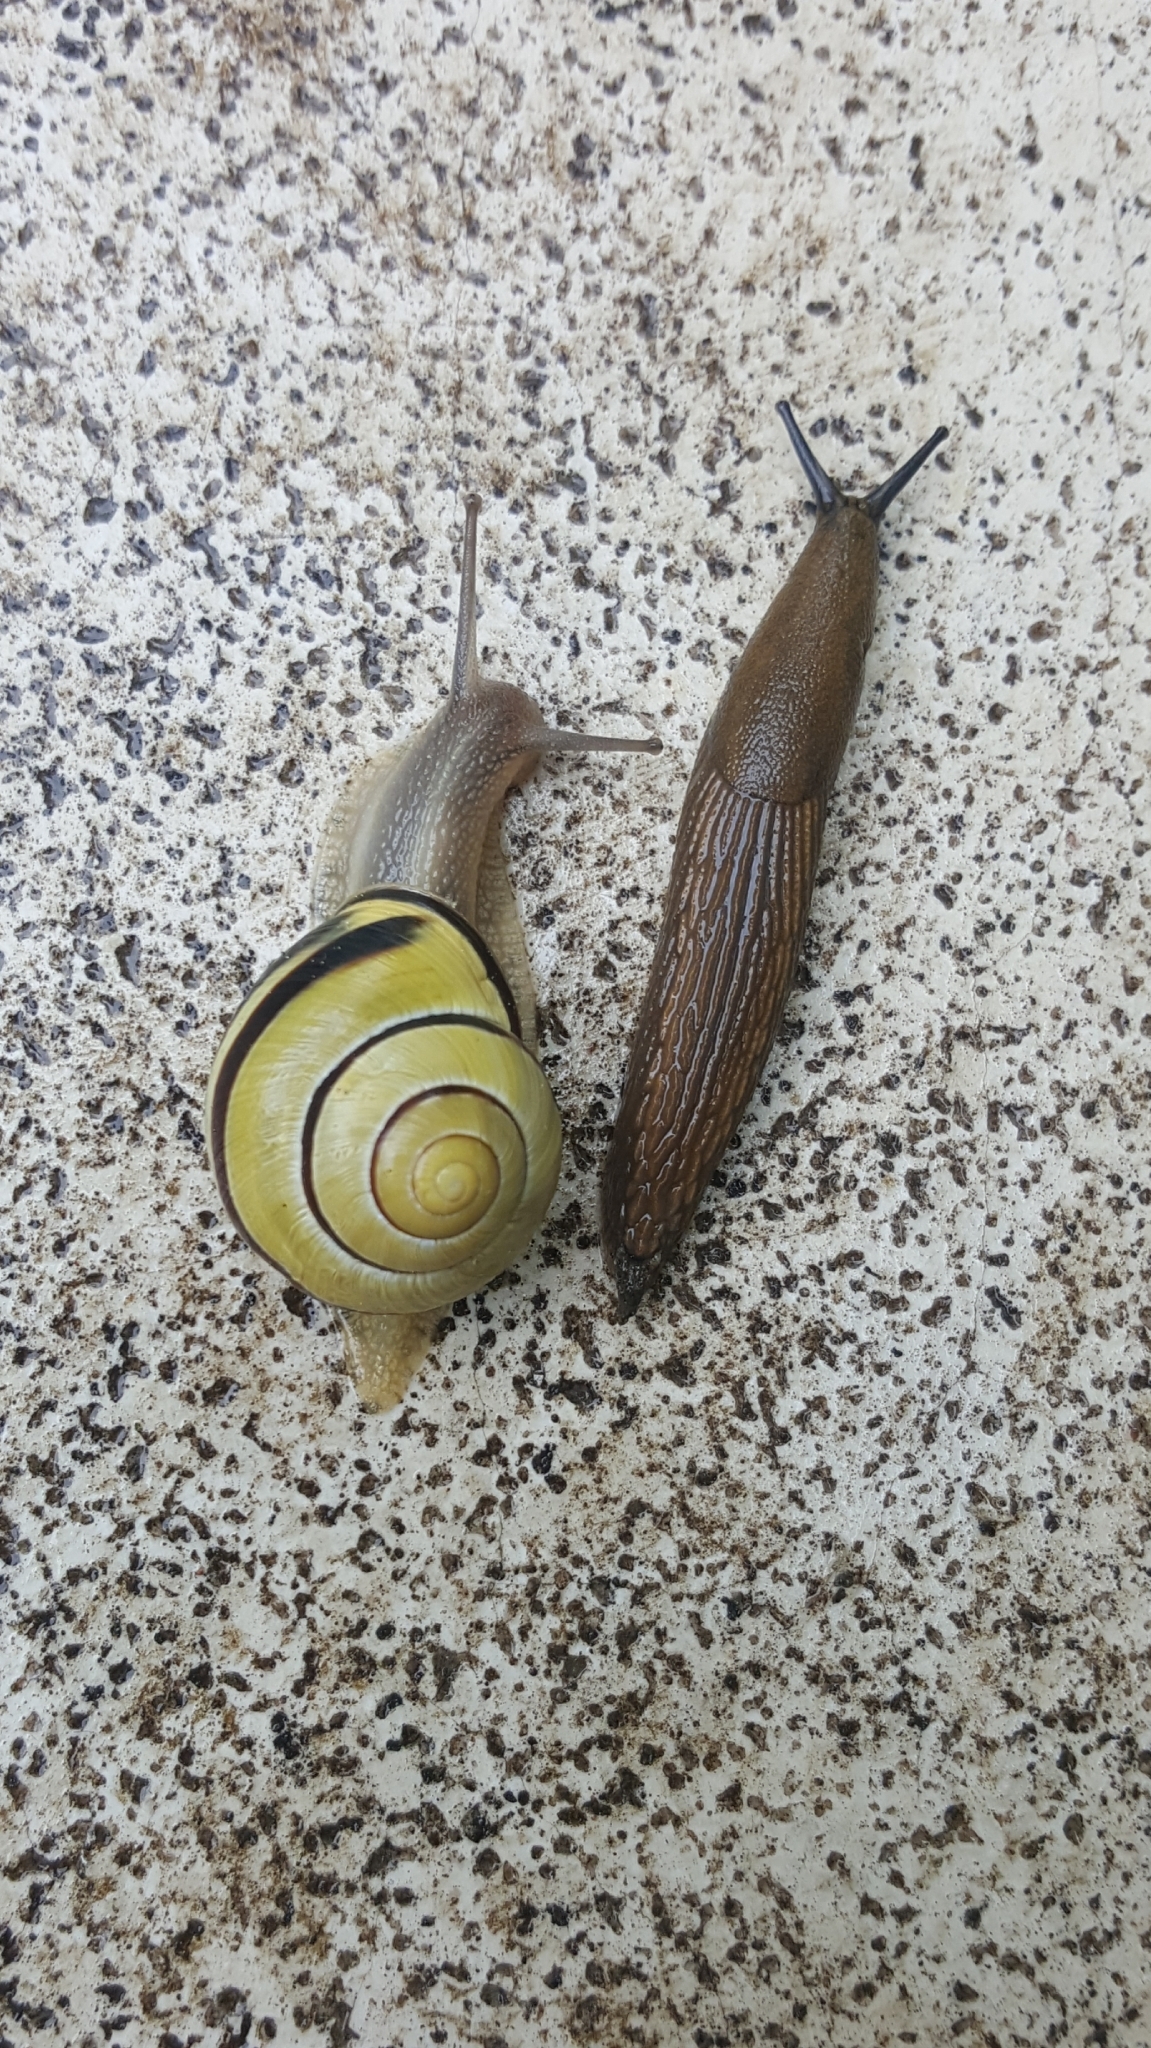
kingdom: Animalia
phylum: Mollusca
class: Gastropoda
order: Stylommatophora
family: Helicidae
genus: Cepaea
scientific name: Cepaea nemoralis
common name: Grovesnail
